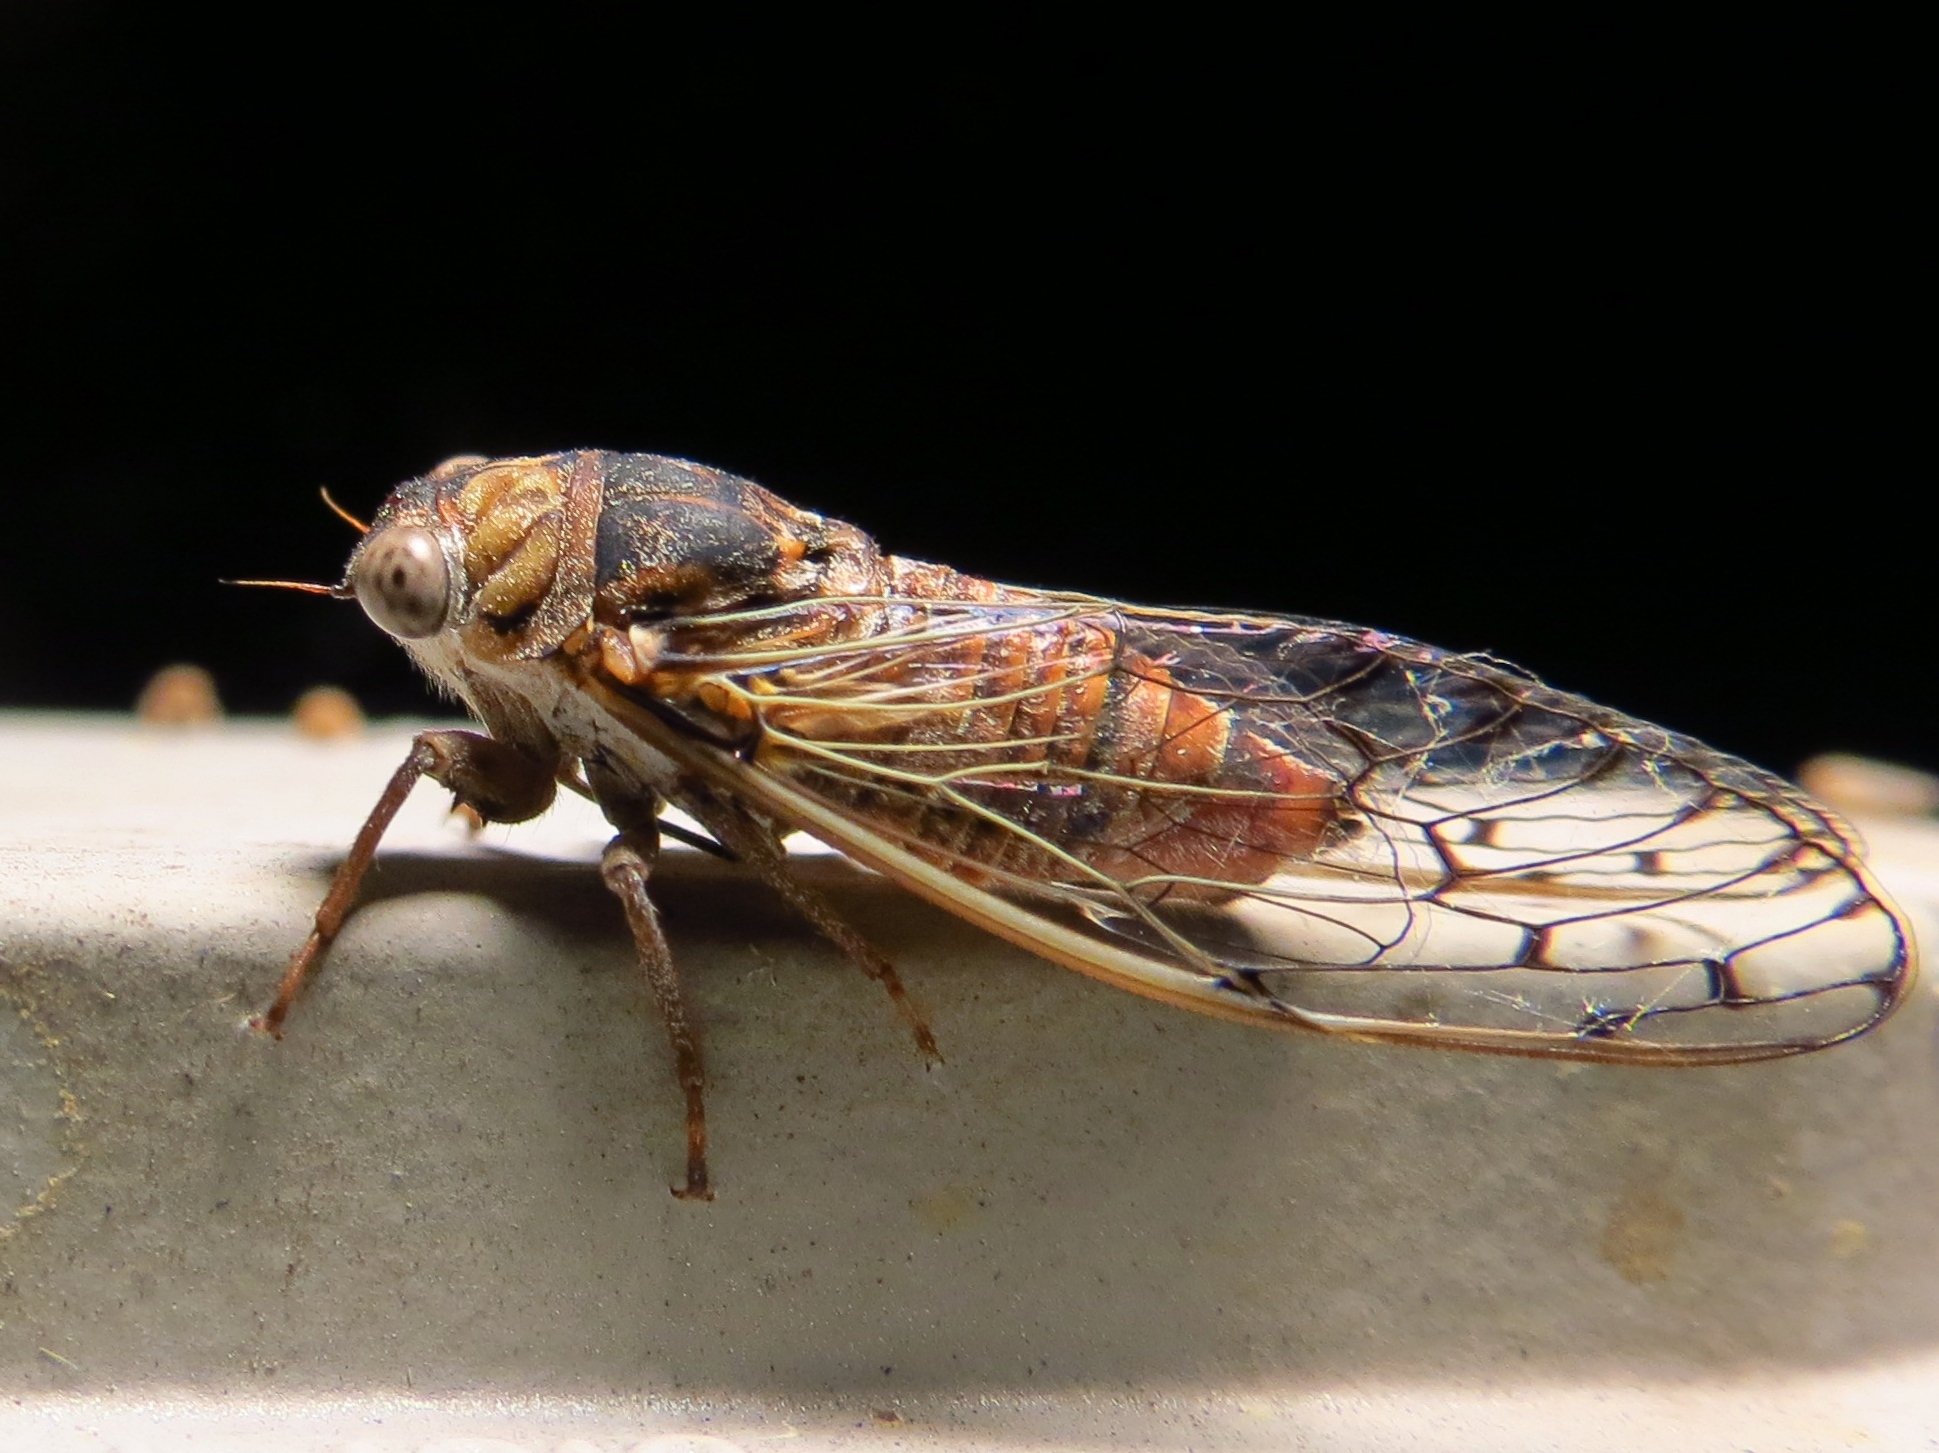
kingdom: Animalia
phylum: Arthropoda
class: Insecta
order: Hemiptera
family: Cicadidae
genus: Pacarina
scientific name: Pacarina puella
